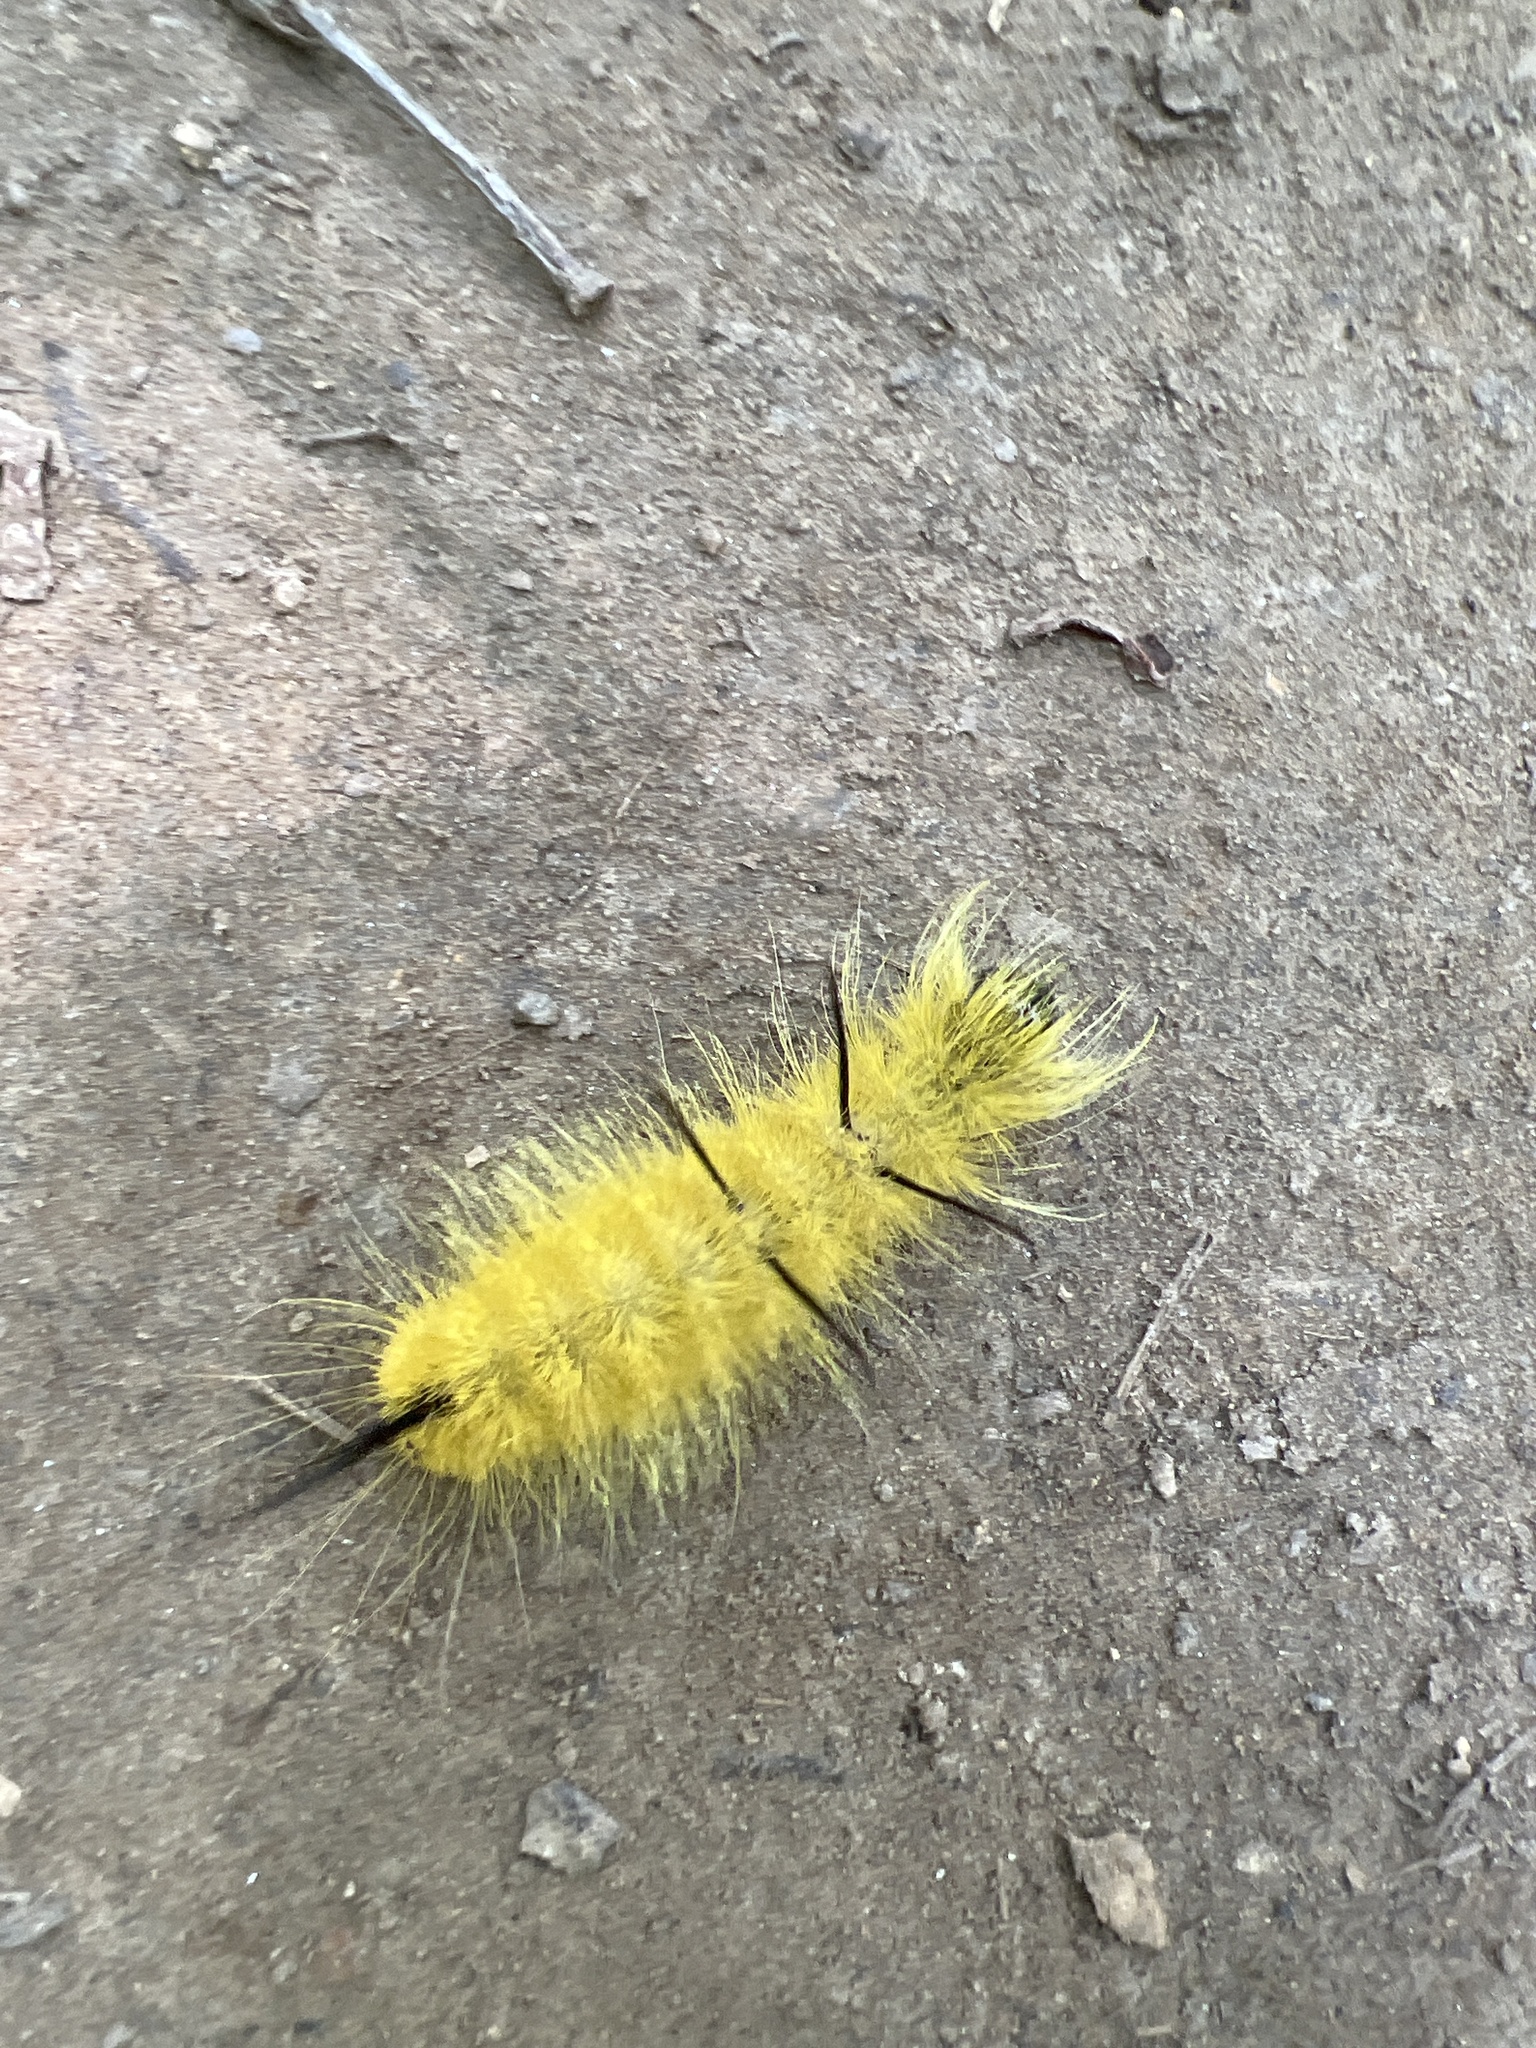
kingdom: Animalia
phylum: Arthropoda
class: Insecta
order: Lepidoptera
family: Noctuidae
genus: Acronicta
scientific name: Acronicta americana
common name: American dagger
